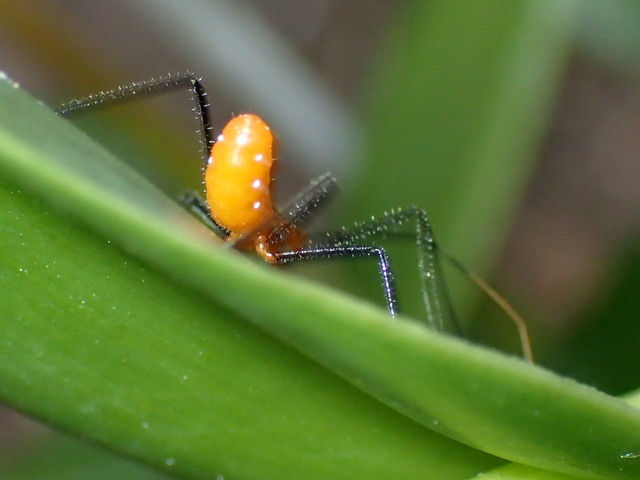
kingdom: Animalia
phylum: Arthropoda
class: Insecta
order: Hemiptera
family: Reduviidae
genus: Zelus
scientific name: Zelus longipes
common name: Milkweed assassin bug
